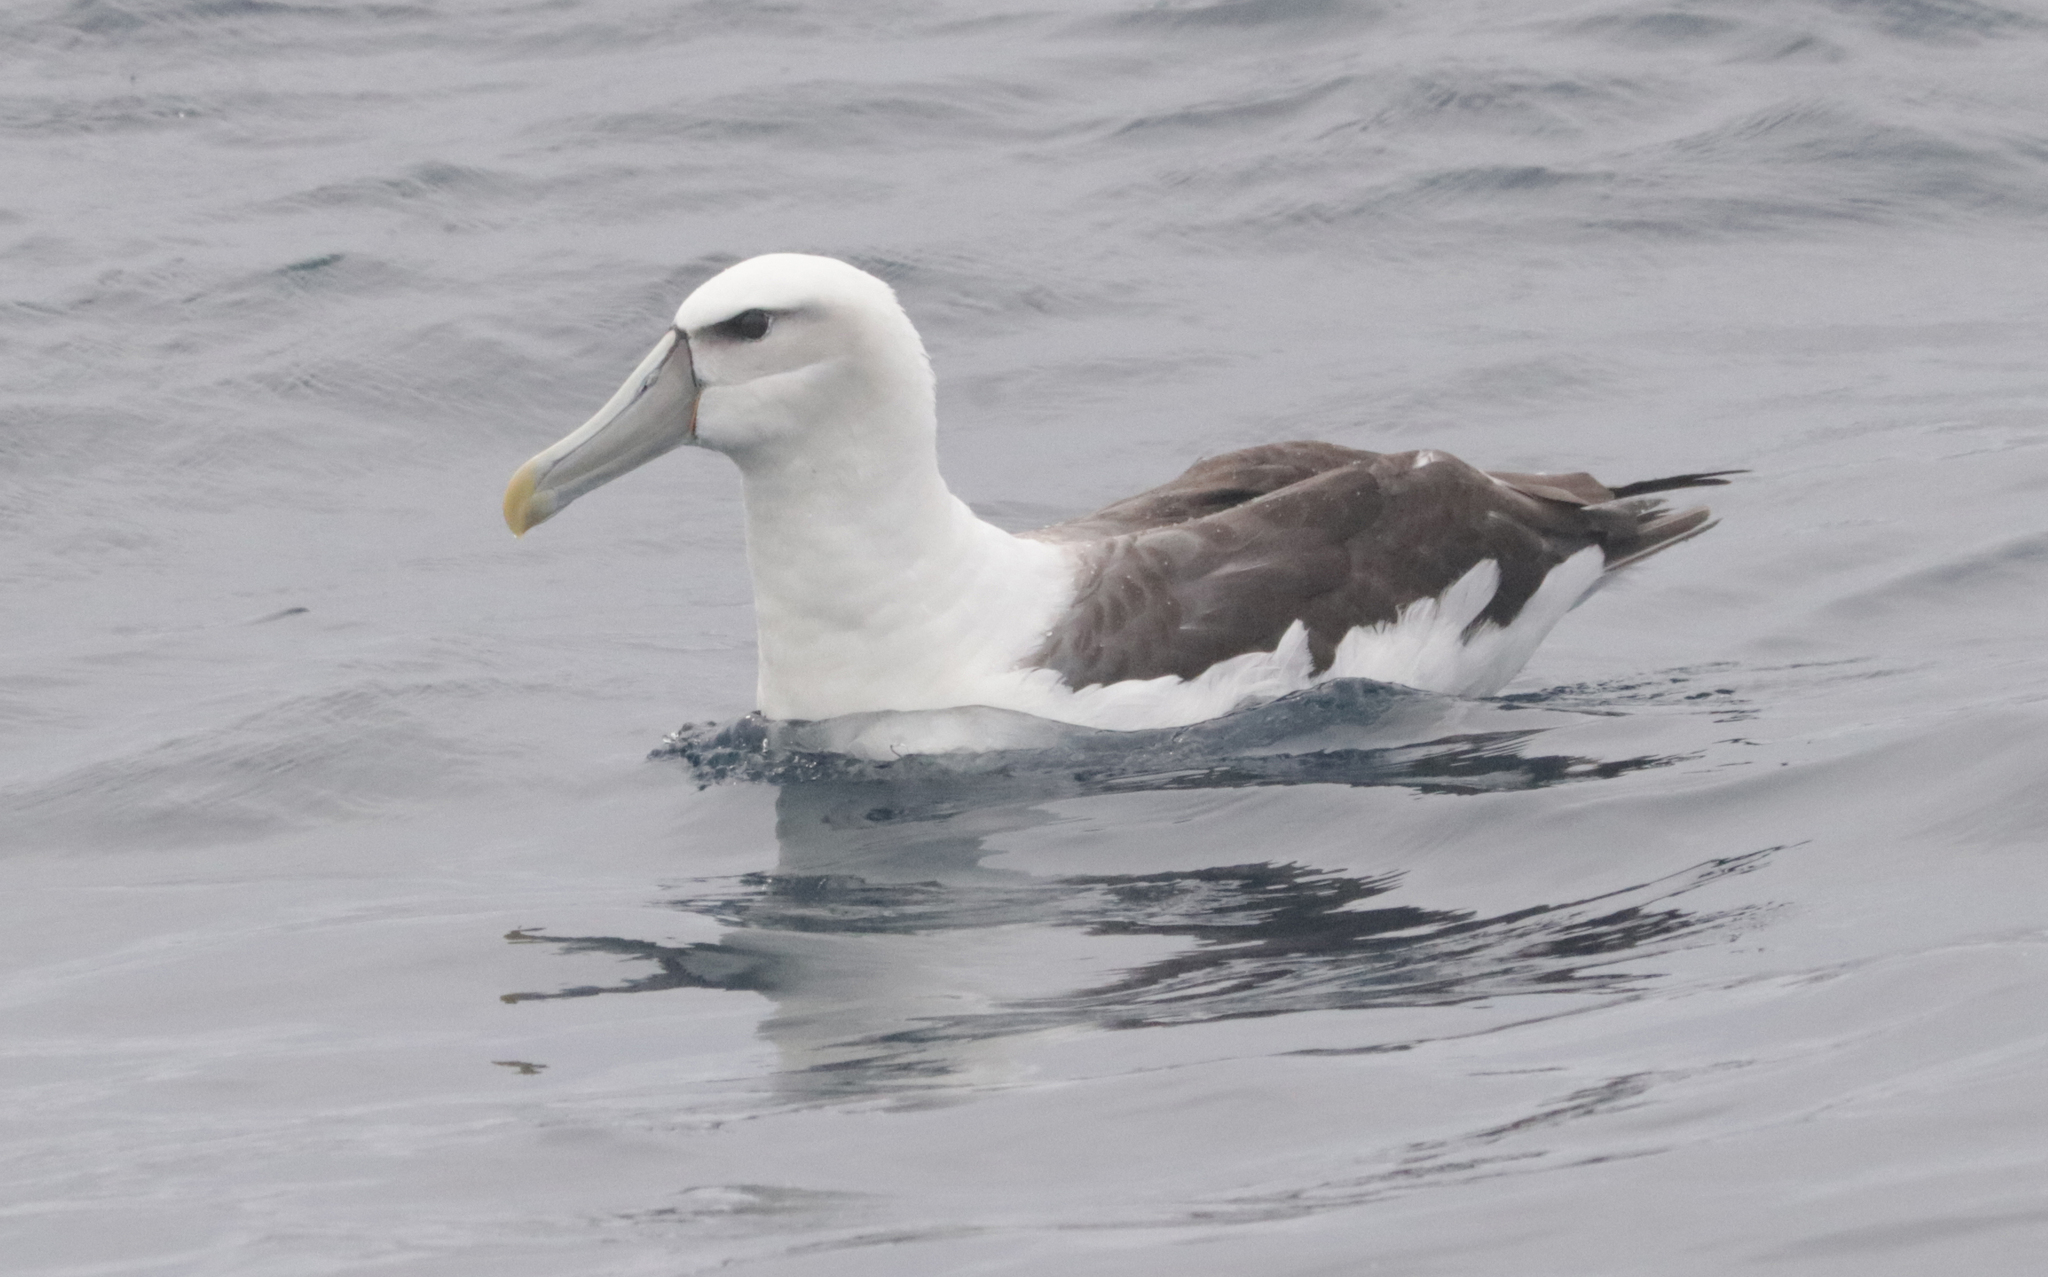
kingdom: Animalia
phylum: Chordata
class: Aves
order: Procellariiformes
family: Diomedeidae
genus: Thalassarche
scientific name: Thalassarche cauta
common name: Shy albatross
